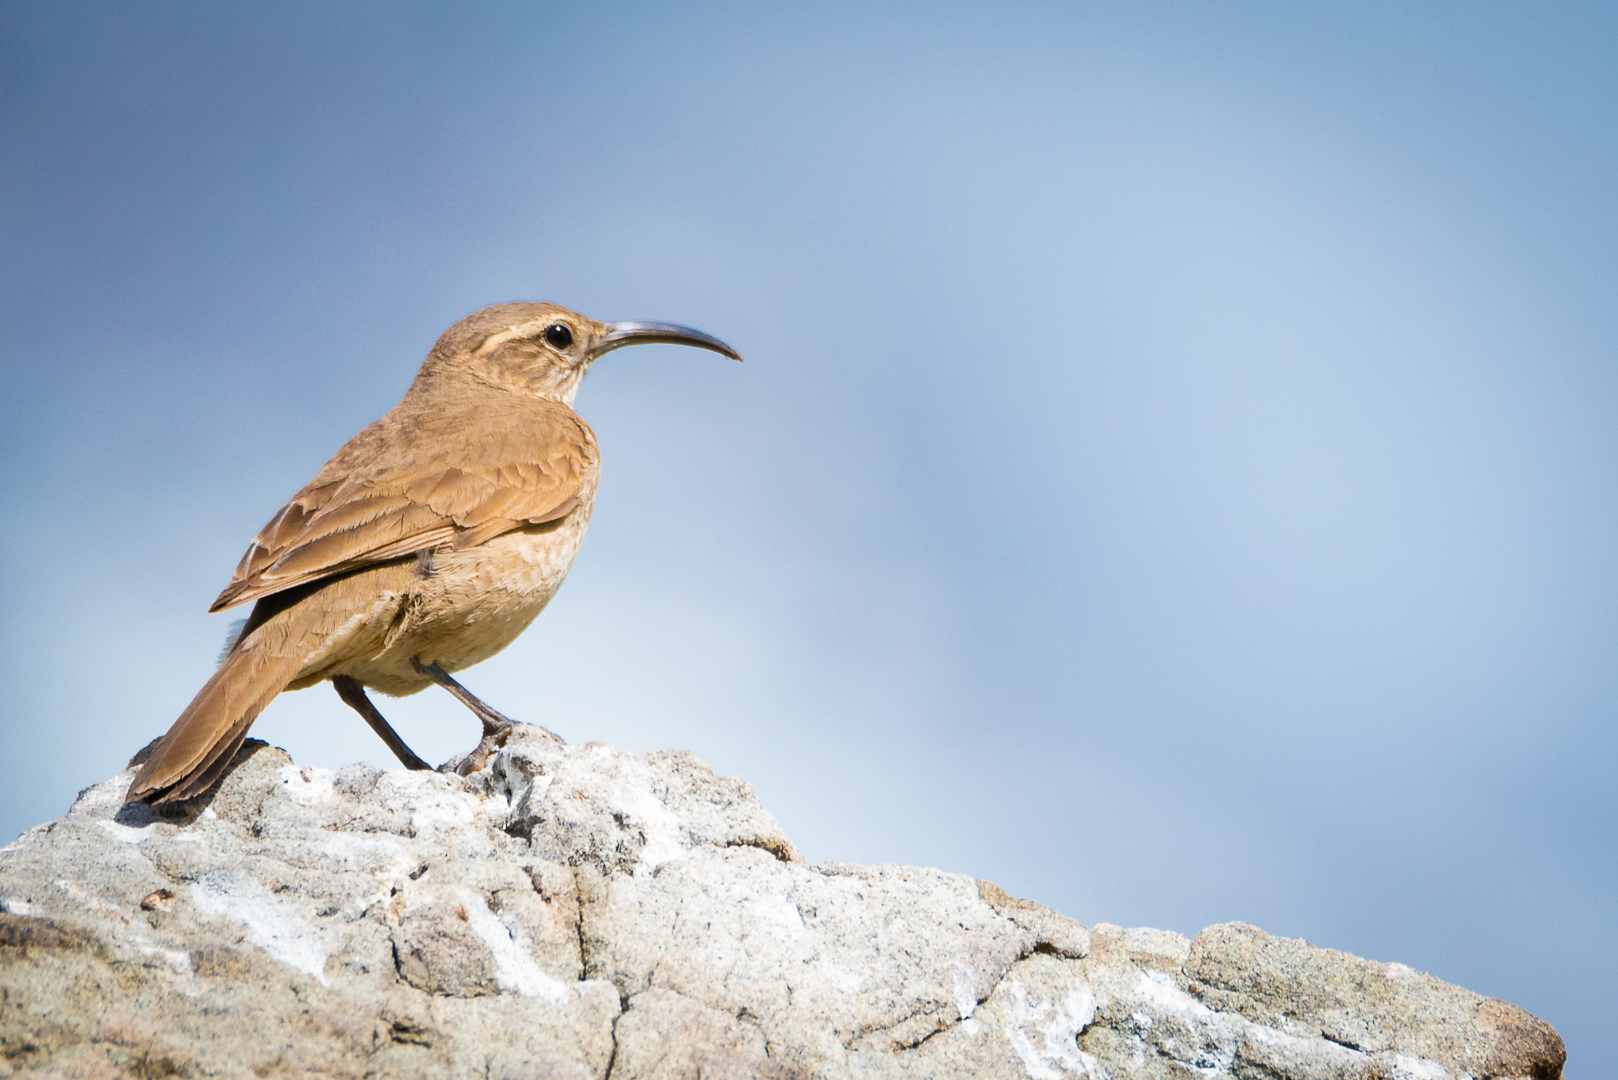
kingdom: Animalia
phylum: Chordata
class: Aves
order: Passeriformes
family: Furnariidae
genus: Upucerthia
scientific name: Upucerthia dumetaria
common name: Scale-throated earthcreeper
